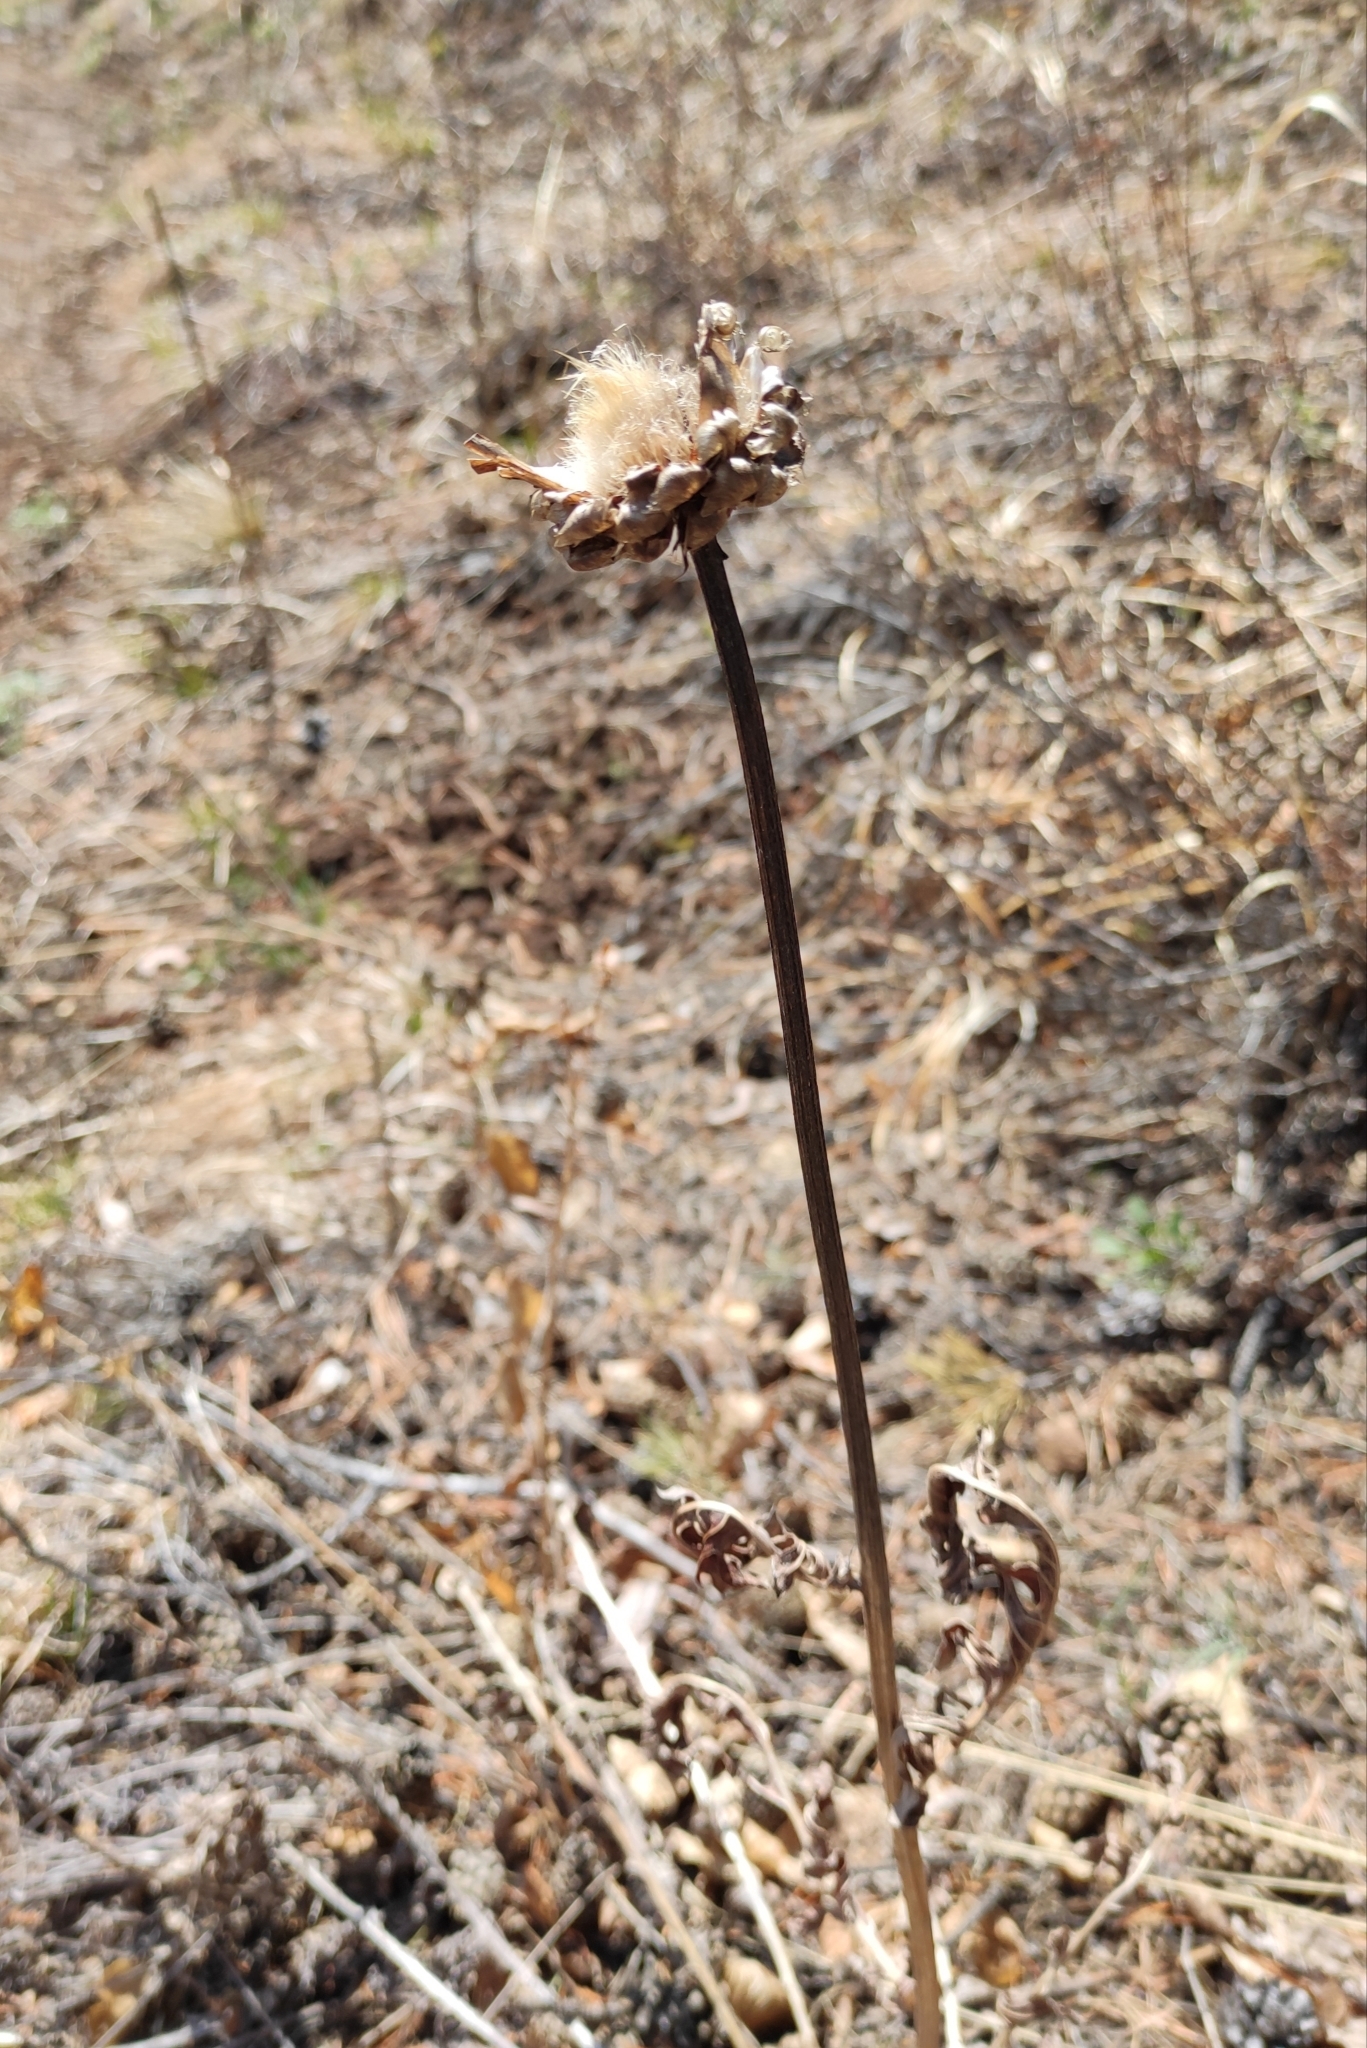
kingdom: Plantae
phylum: Tracheophyta
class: Magnoliopsida
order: Asterales
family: Asteraceae
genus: Leuzea
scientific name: Leuzea uniflora
